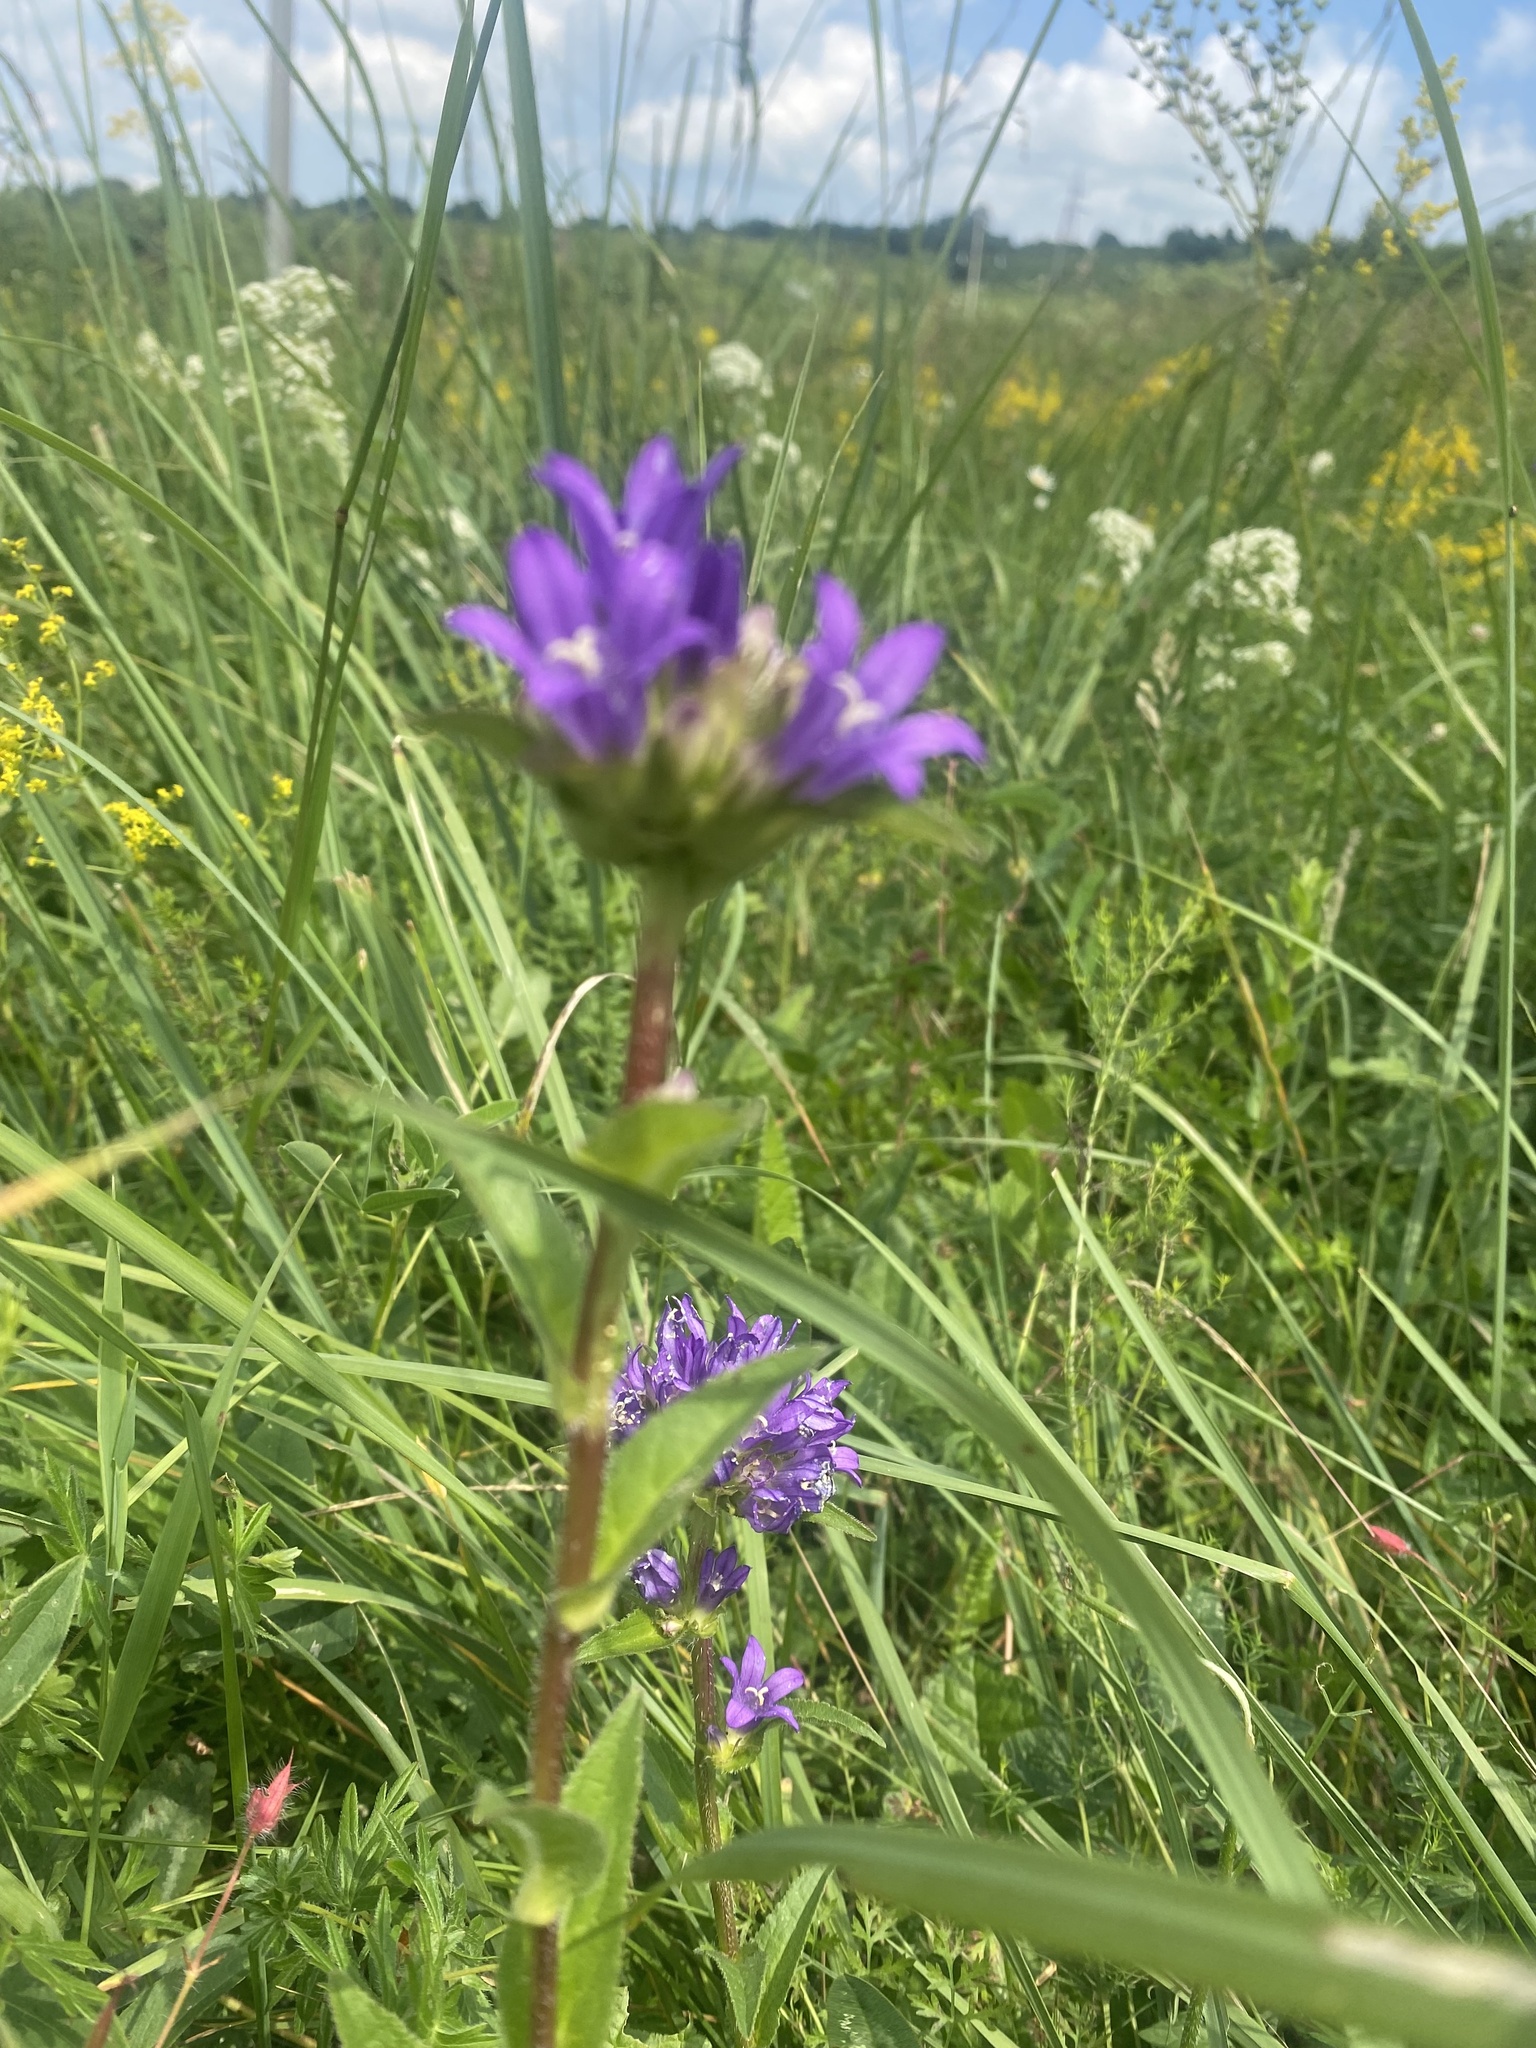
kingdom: Plantae
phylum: Tracheophyta
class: Magnoliopsida
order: Asterales
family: Campanulaceae
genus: Campanula
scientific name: Campanula glomerata
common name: Clustered bellflower
